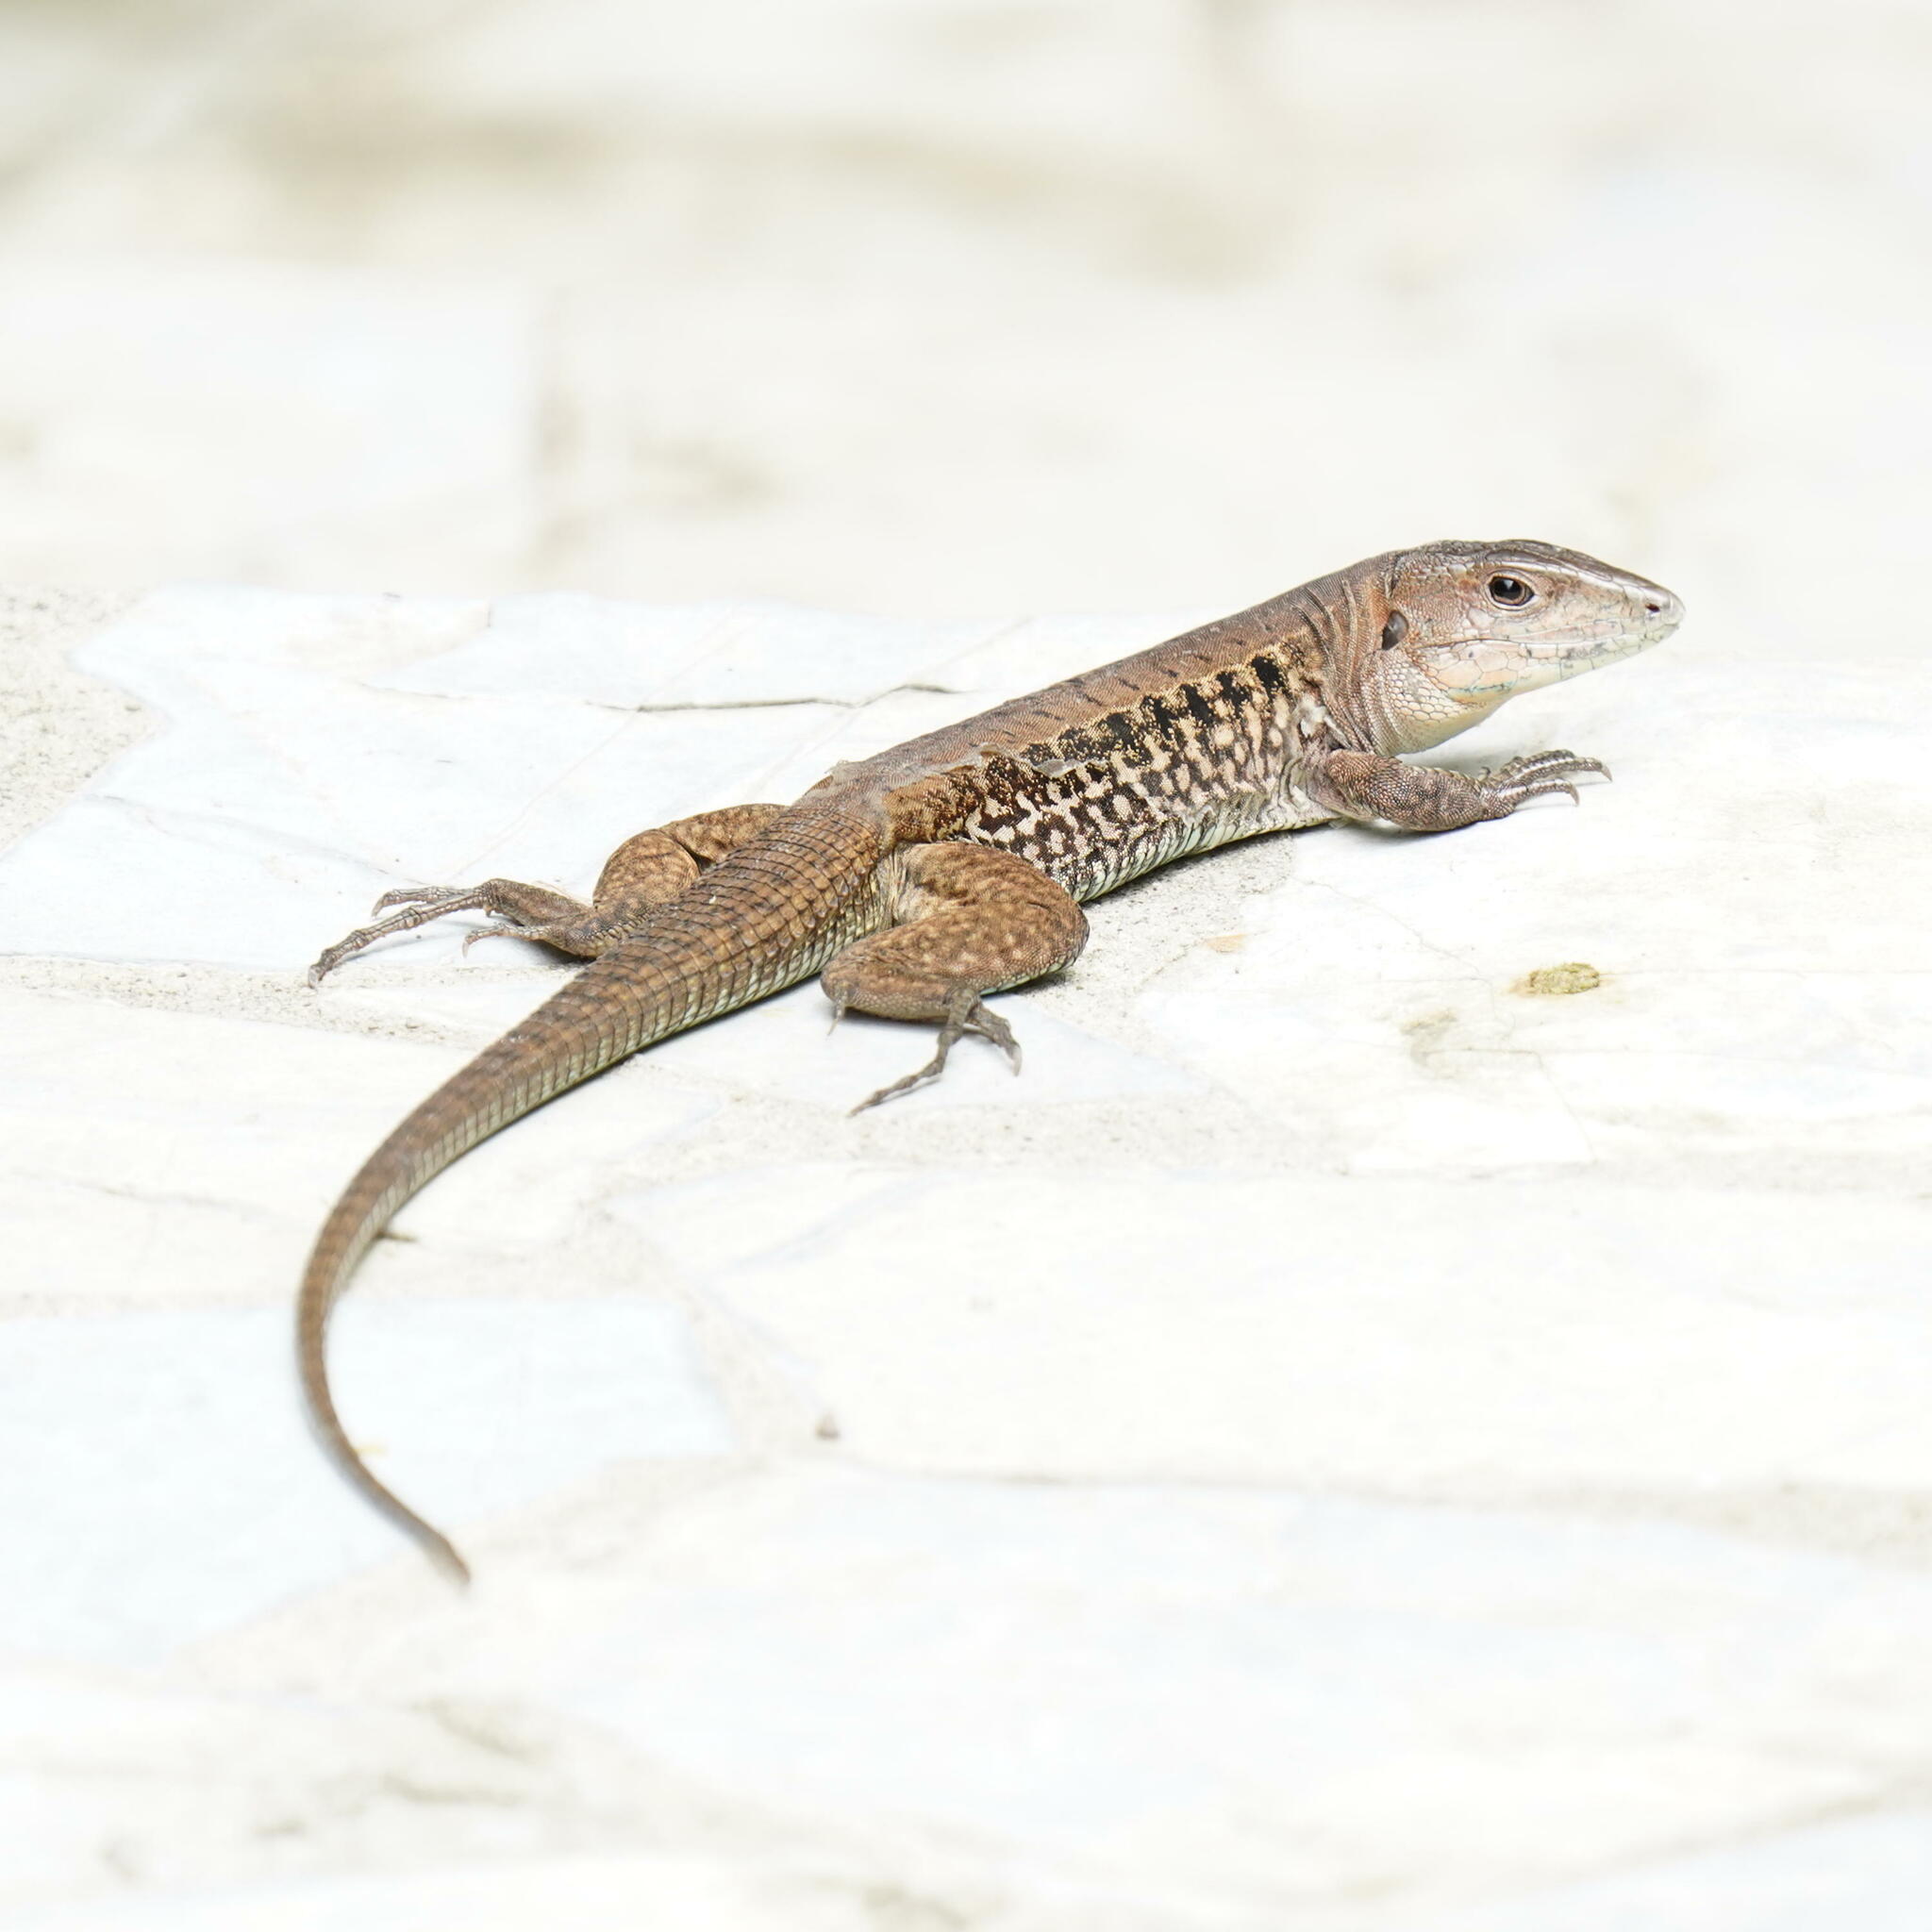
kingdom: Animalia
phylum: Chordata
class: Squamata
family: Teiidae
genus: Holcosus
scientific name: Holcosus leptophrys
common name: Delicate ameiva
